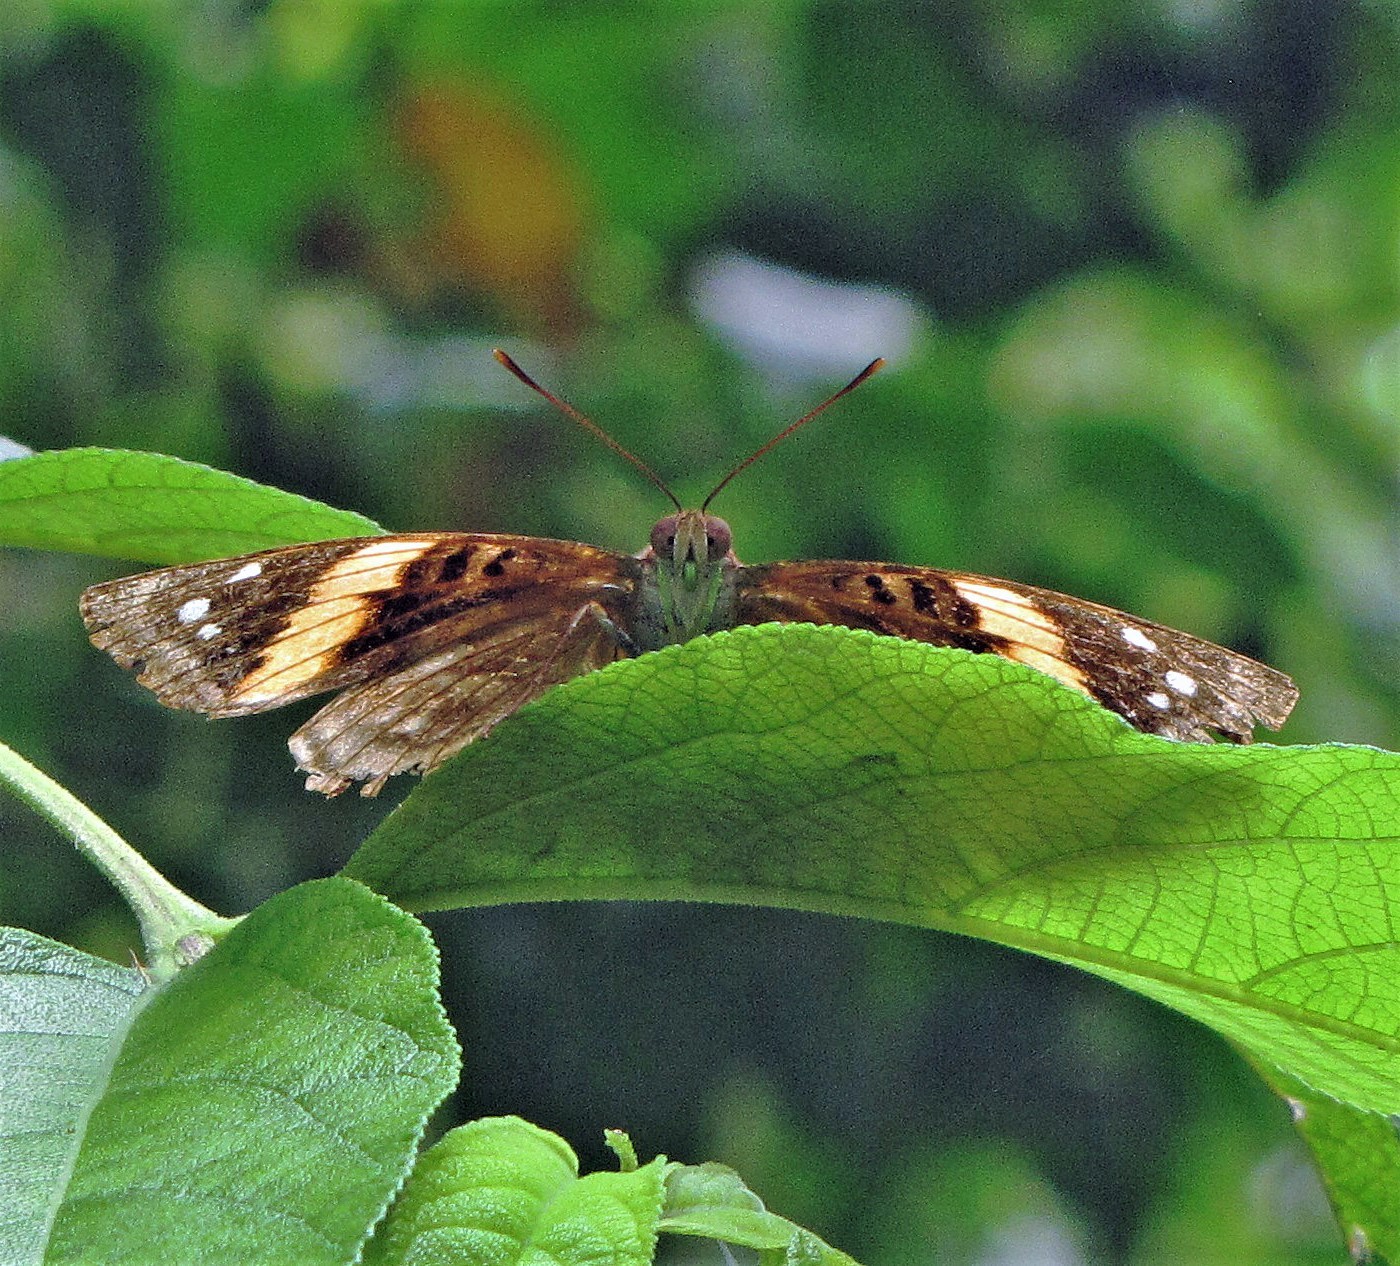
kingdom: Animalia
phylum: Arthropoda
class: Insecta
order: Lepidoptera
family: Nymphalidae
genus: Doxocopa
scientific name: Doxocopa agathina
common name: Agathina emperor
